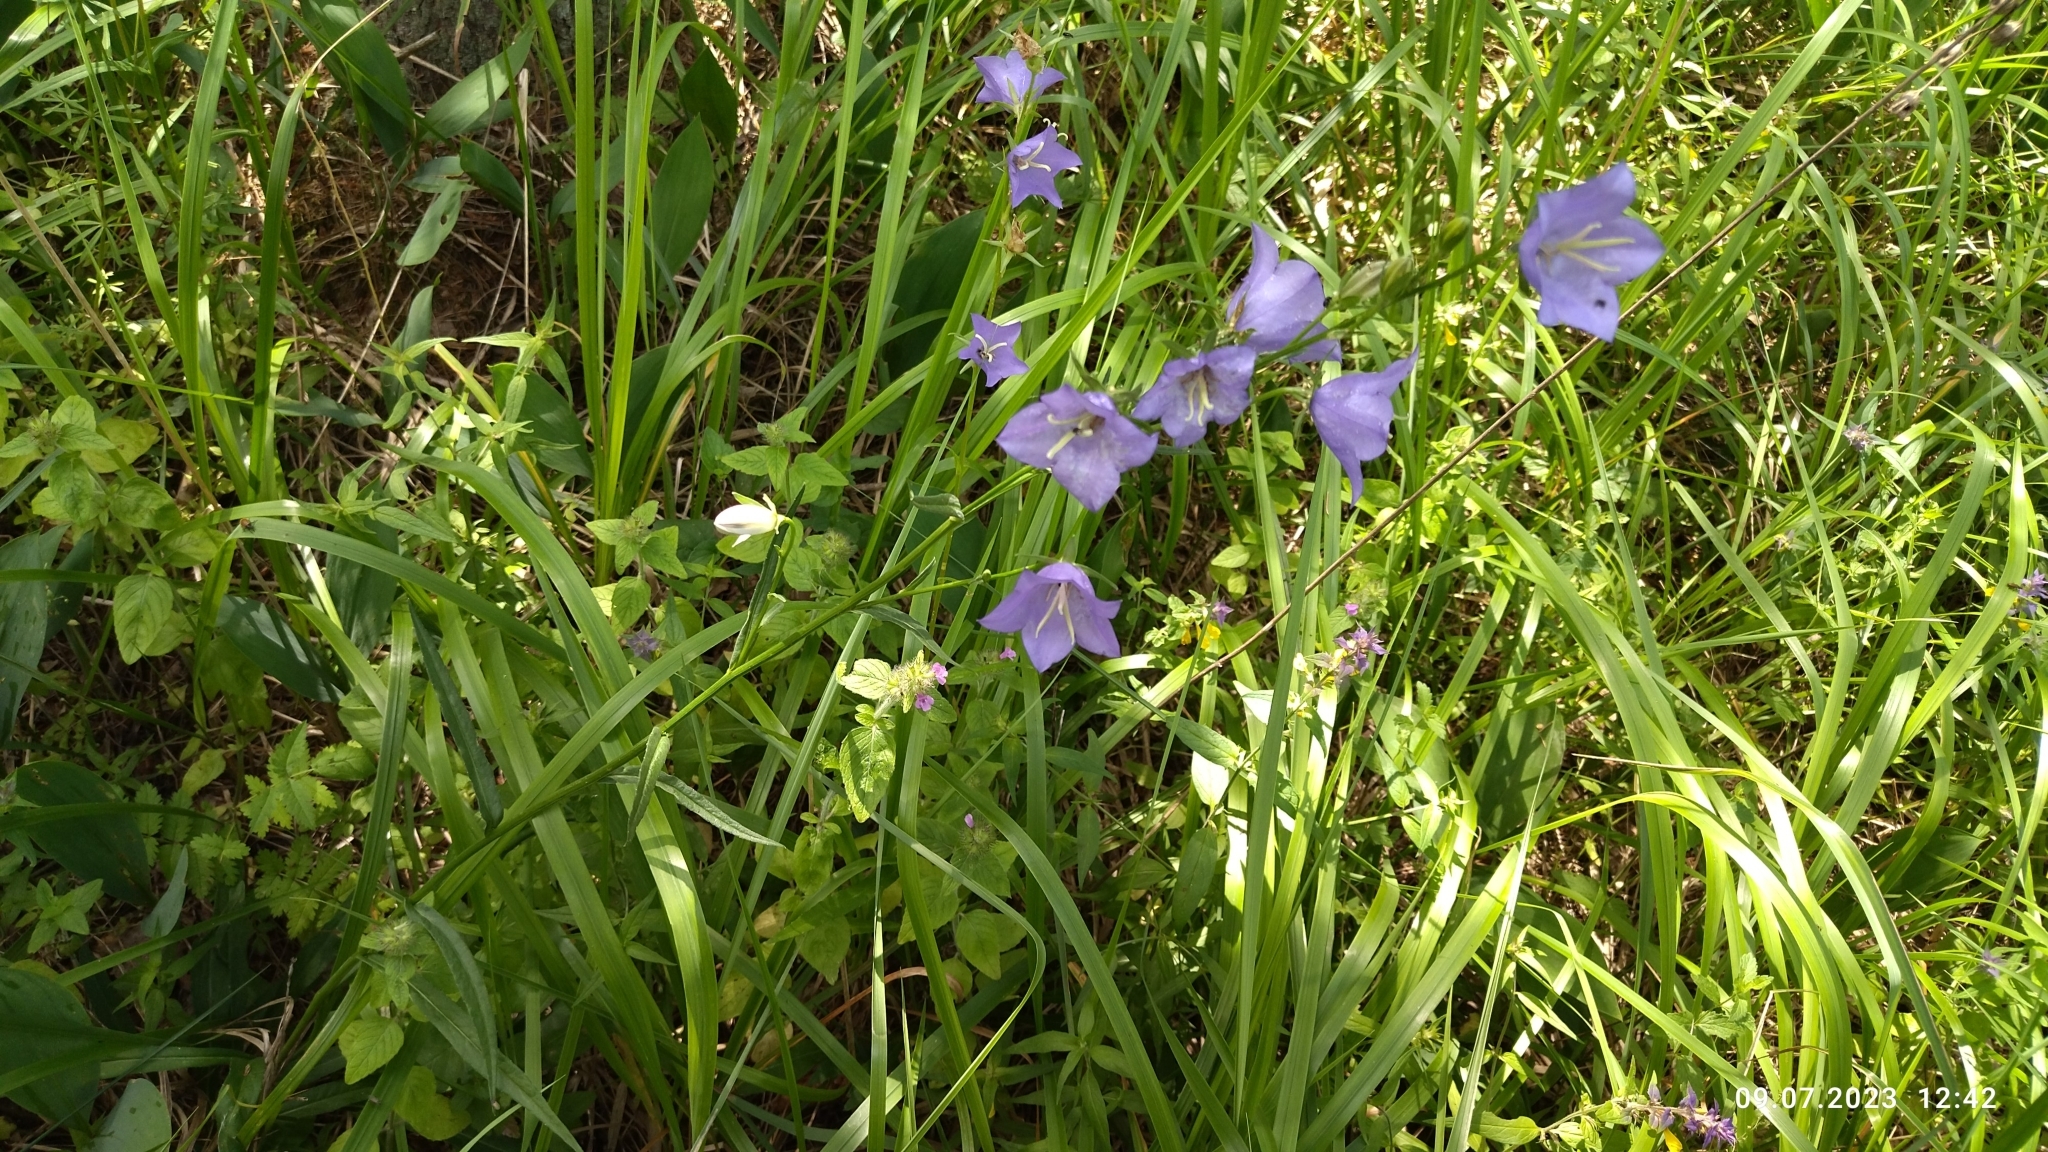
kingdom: Plantae
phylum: Tracheophyta
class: Magnoliopsida
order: Asterales
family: Campanulaceae
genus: Campanula
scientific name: Campanula persicifolia
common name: Peach-leaved bellflower
